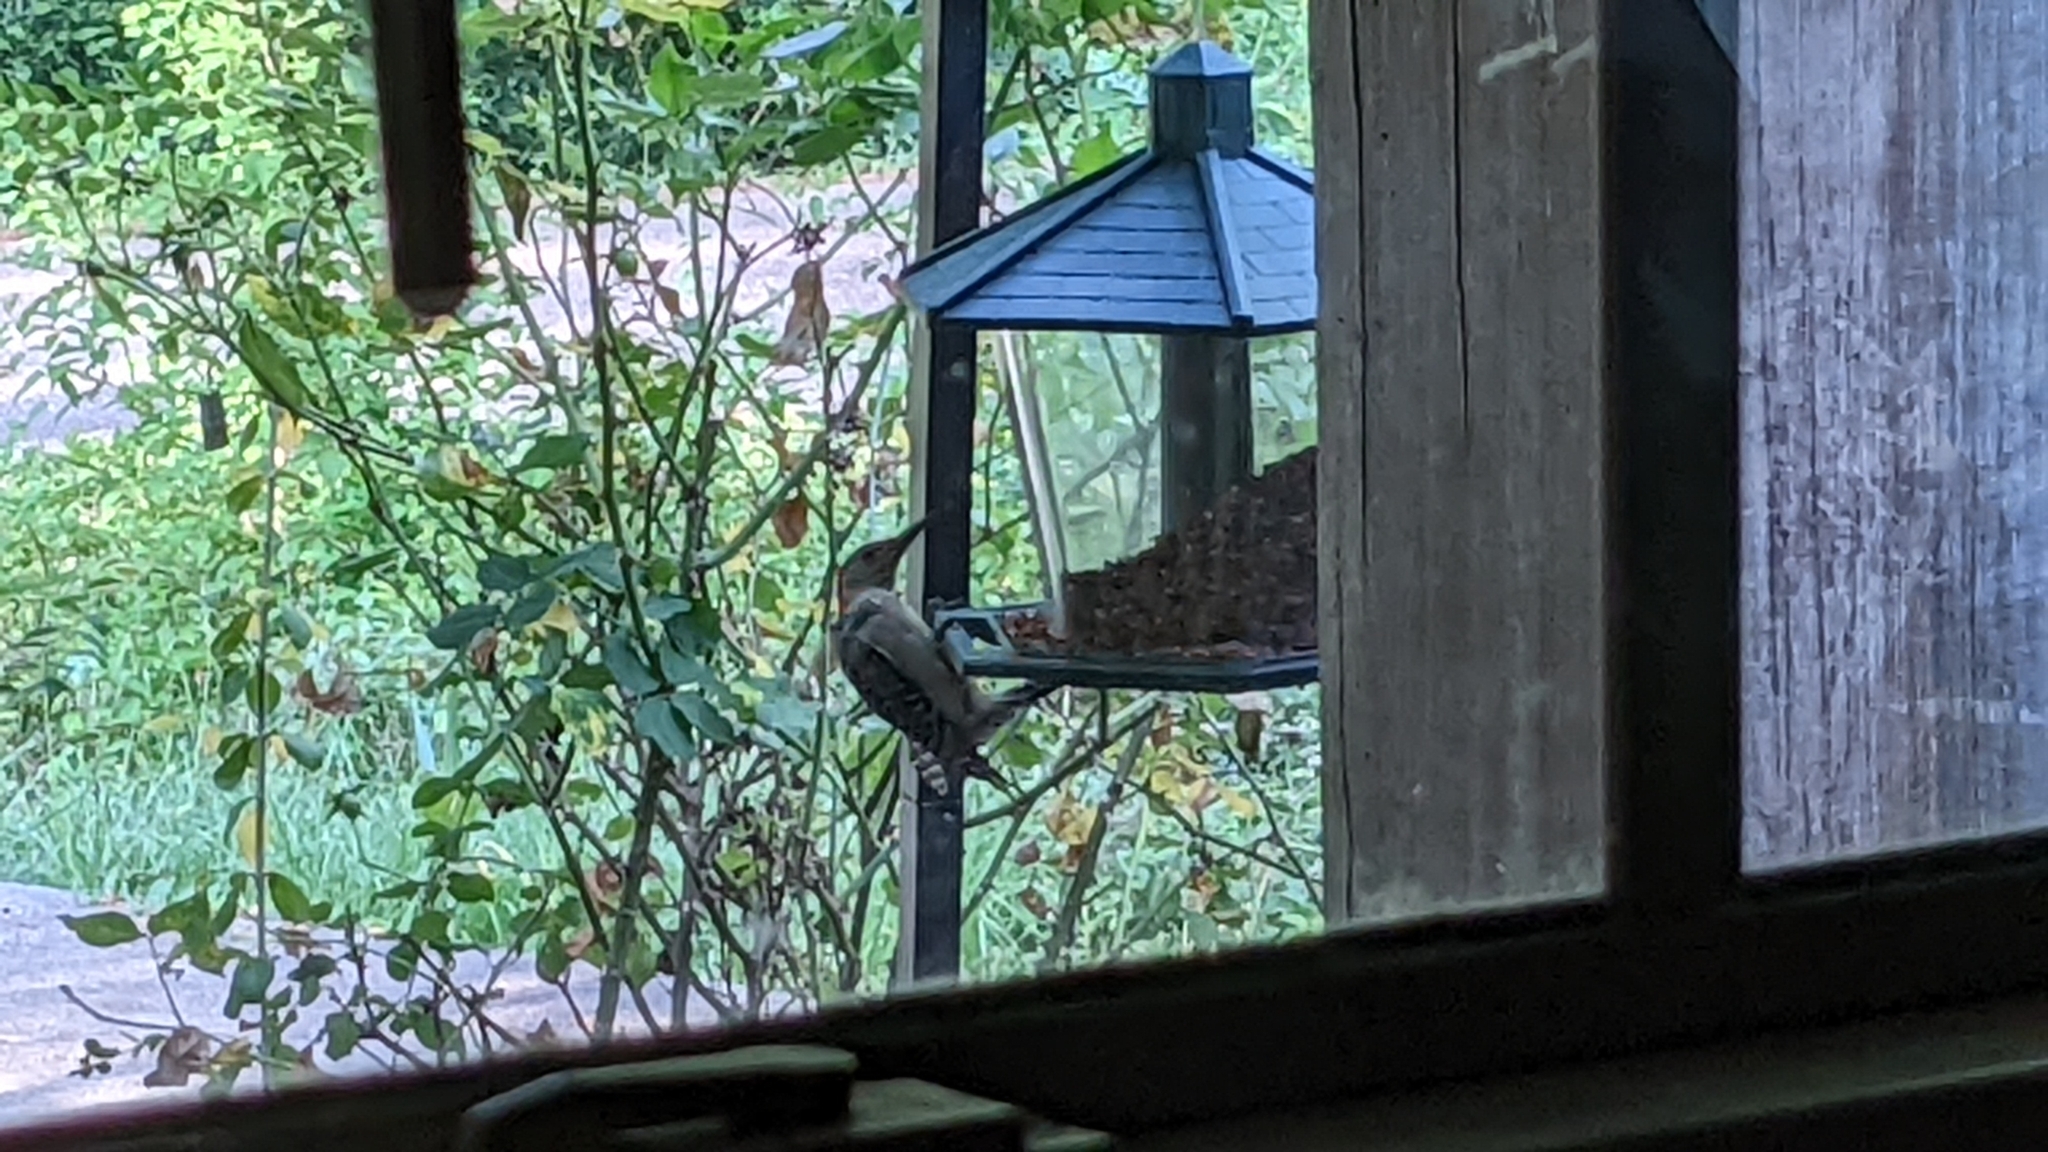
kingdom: Animalia
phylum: Chordata
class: Aves
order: Piciformes
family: Picidae
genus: Melanerpes
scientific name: Melanerpes carolinus
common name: Red-bellied woodpecker
